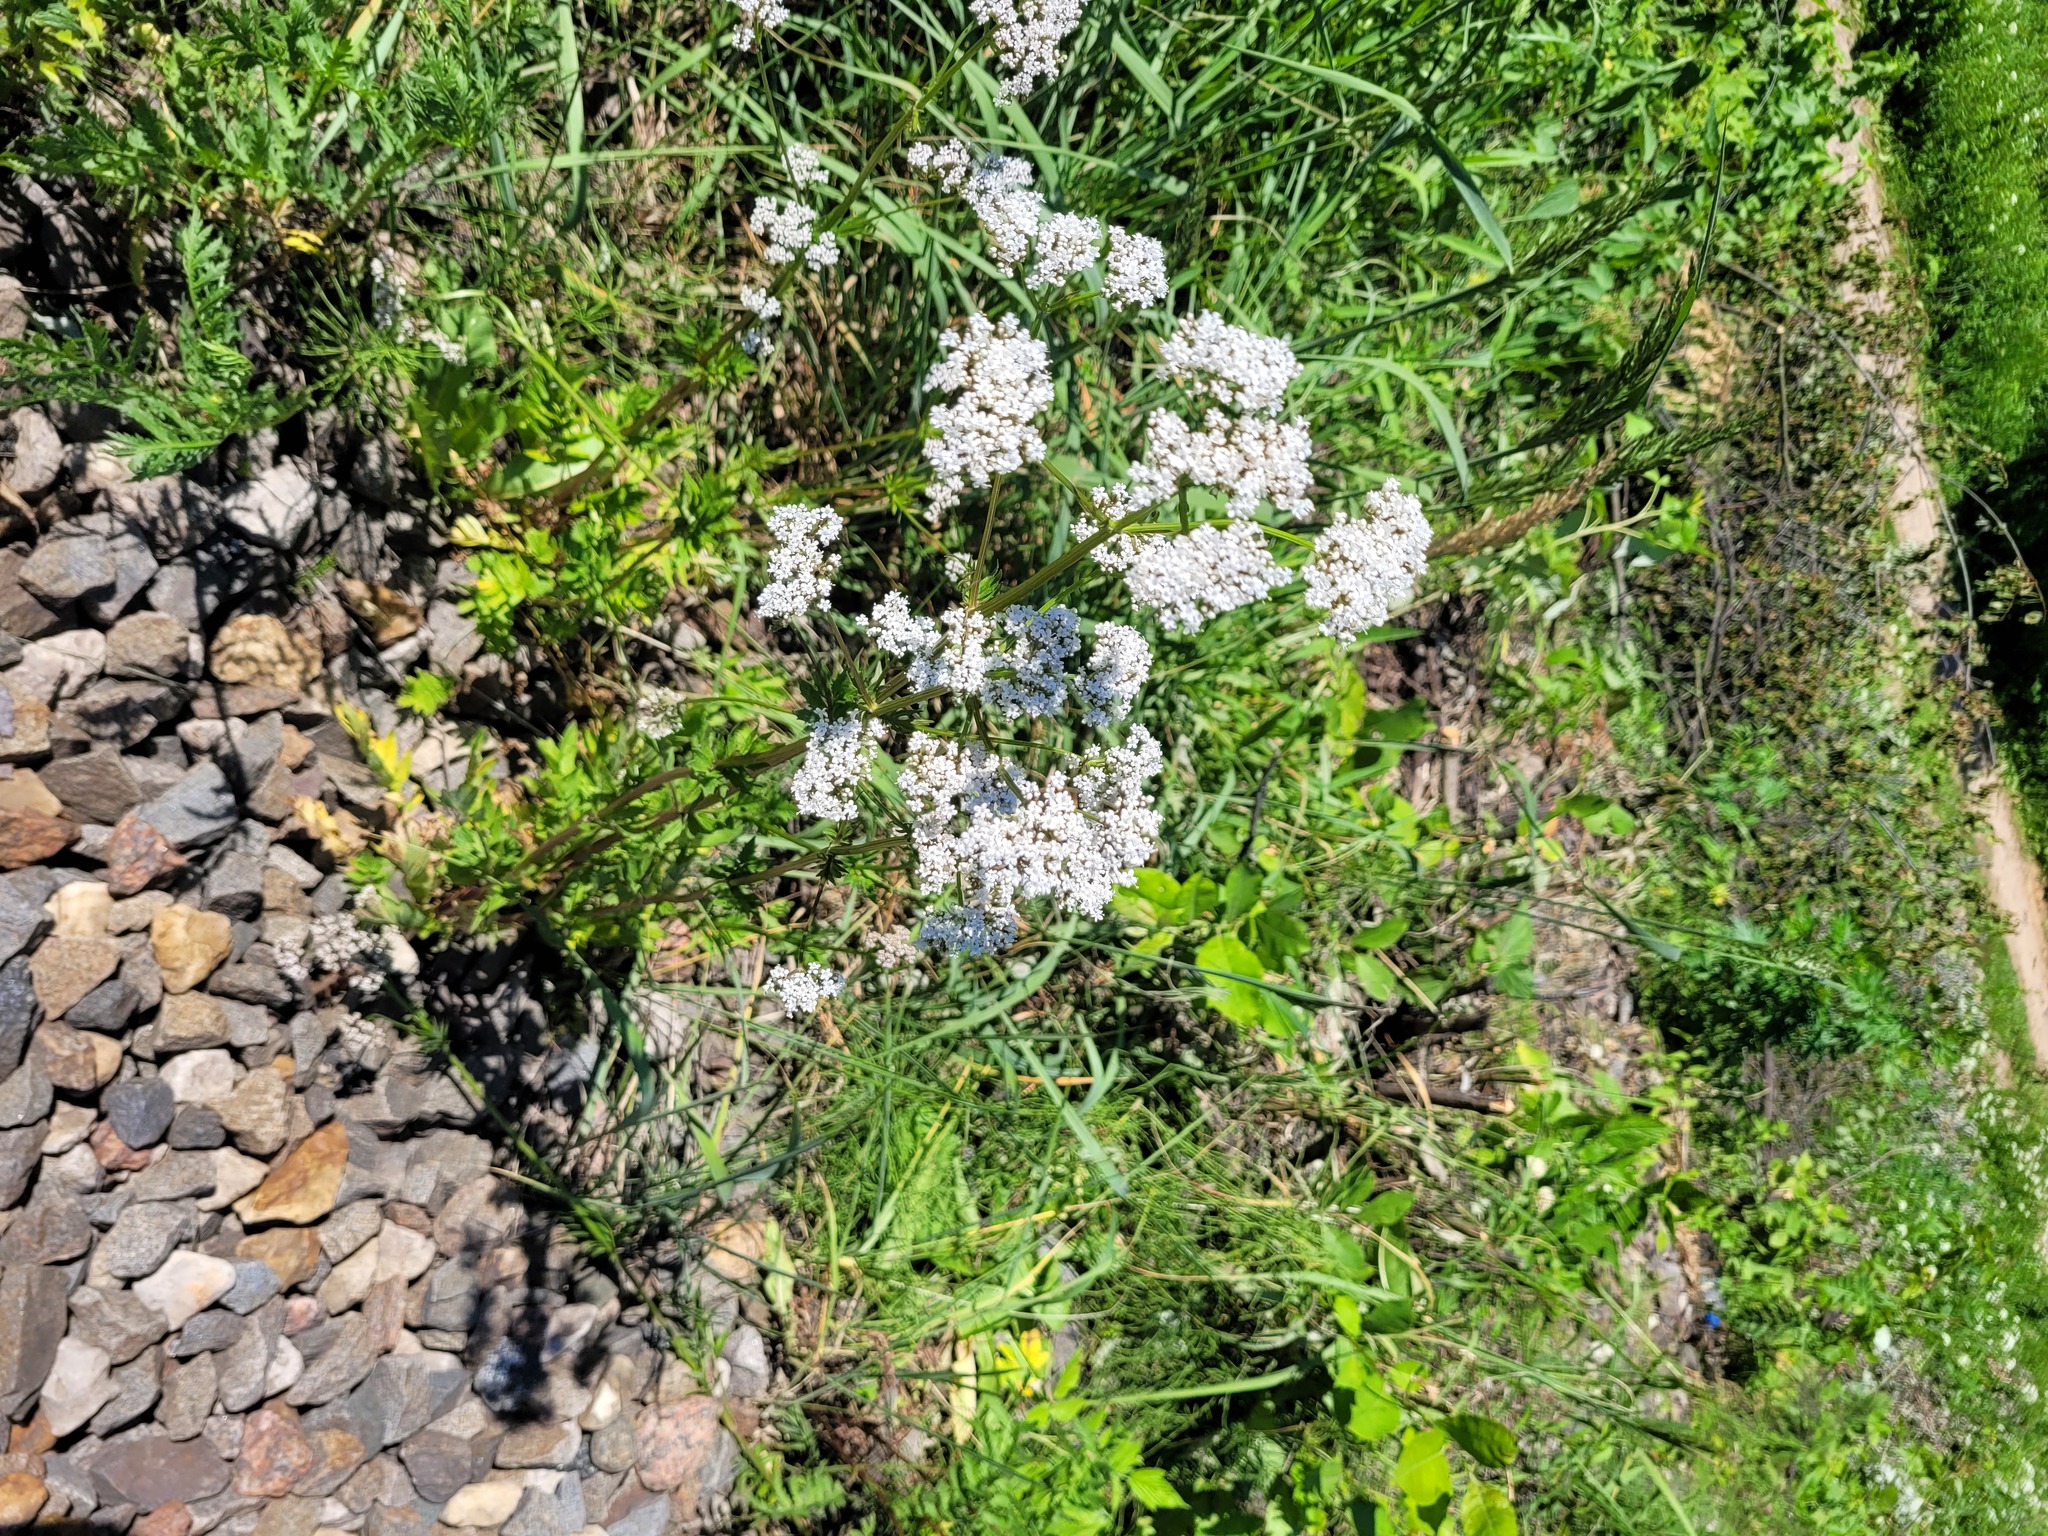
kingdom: Plantae
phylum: Tracheophyta
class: Magnoliopsida
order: Dipsacales
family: Caprifoliaceae
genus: Valeriana
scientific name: Valeriana officinalis
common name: Common valerian
